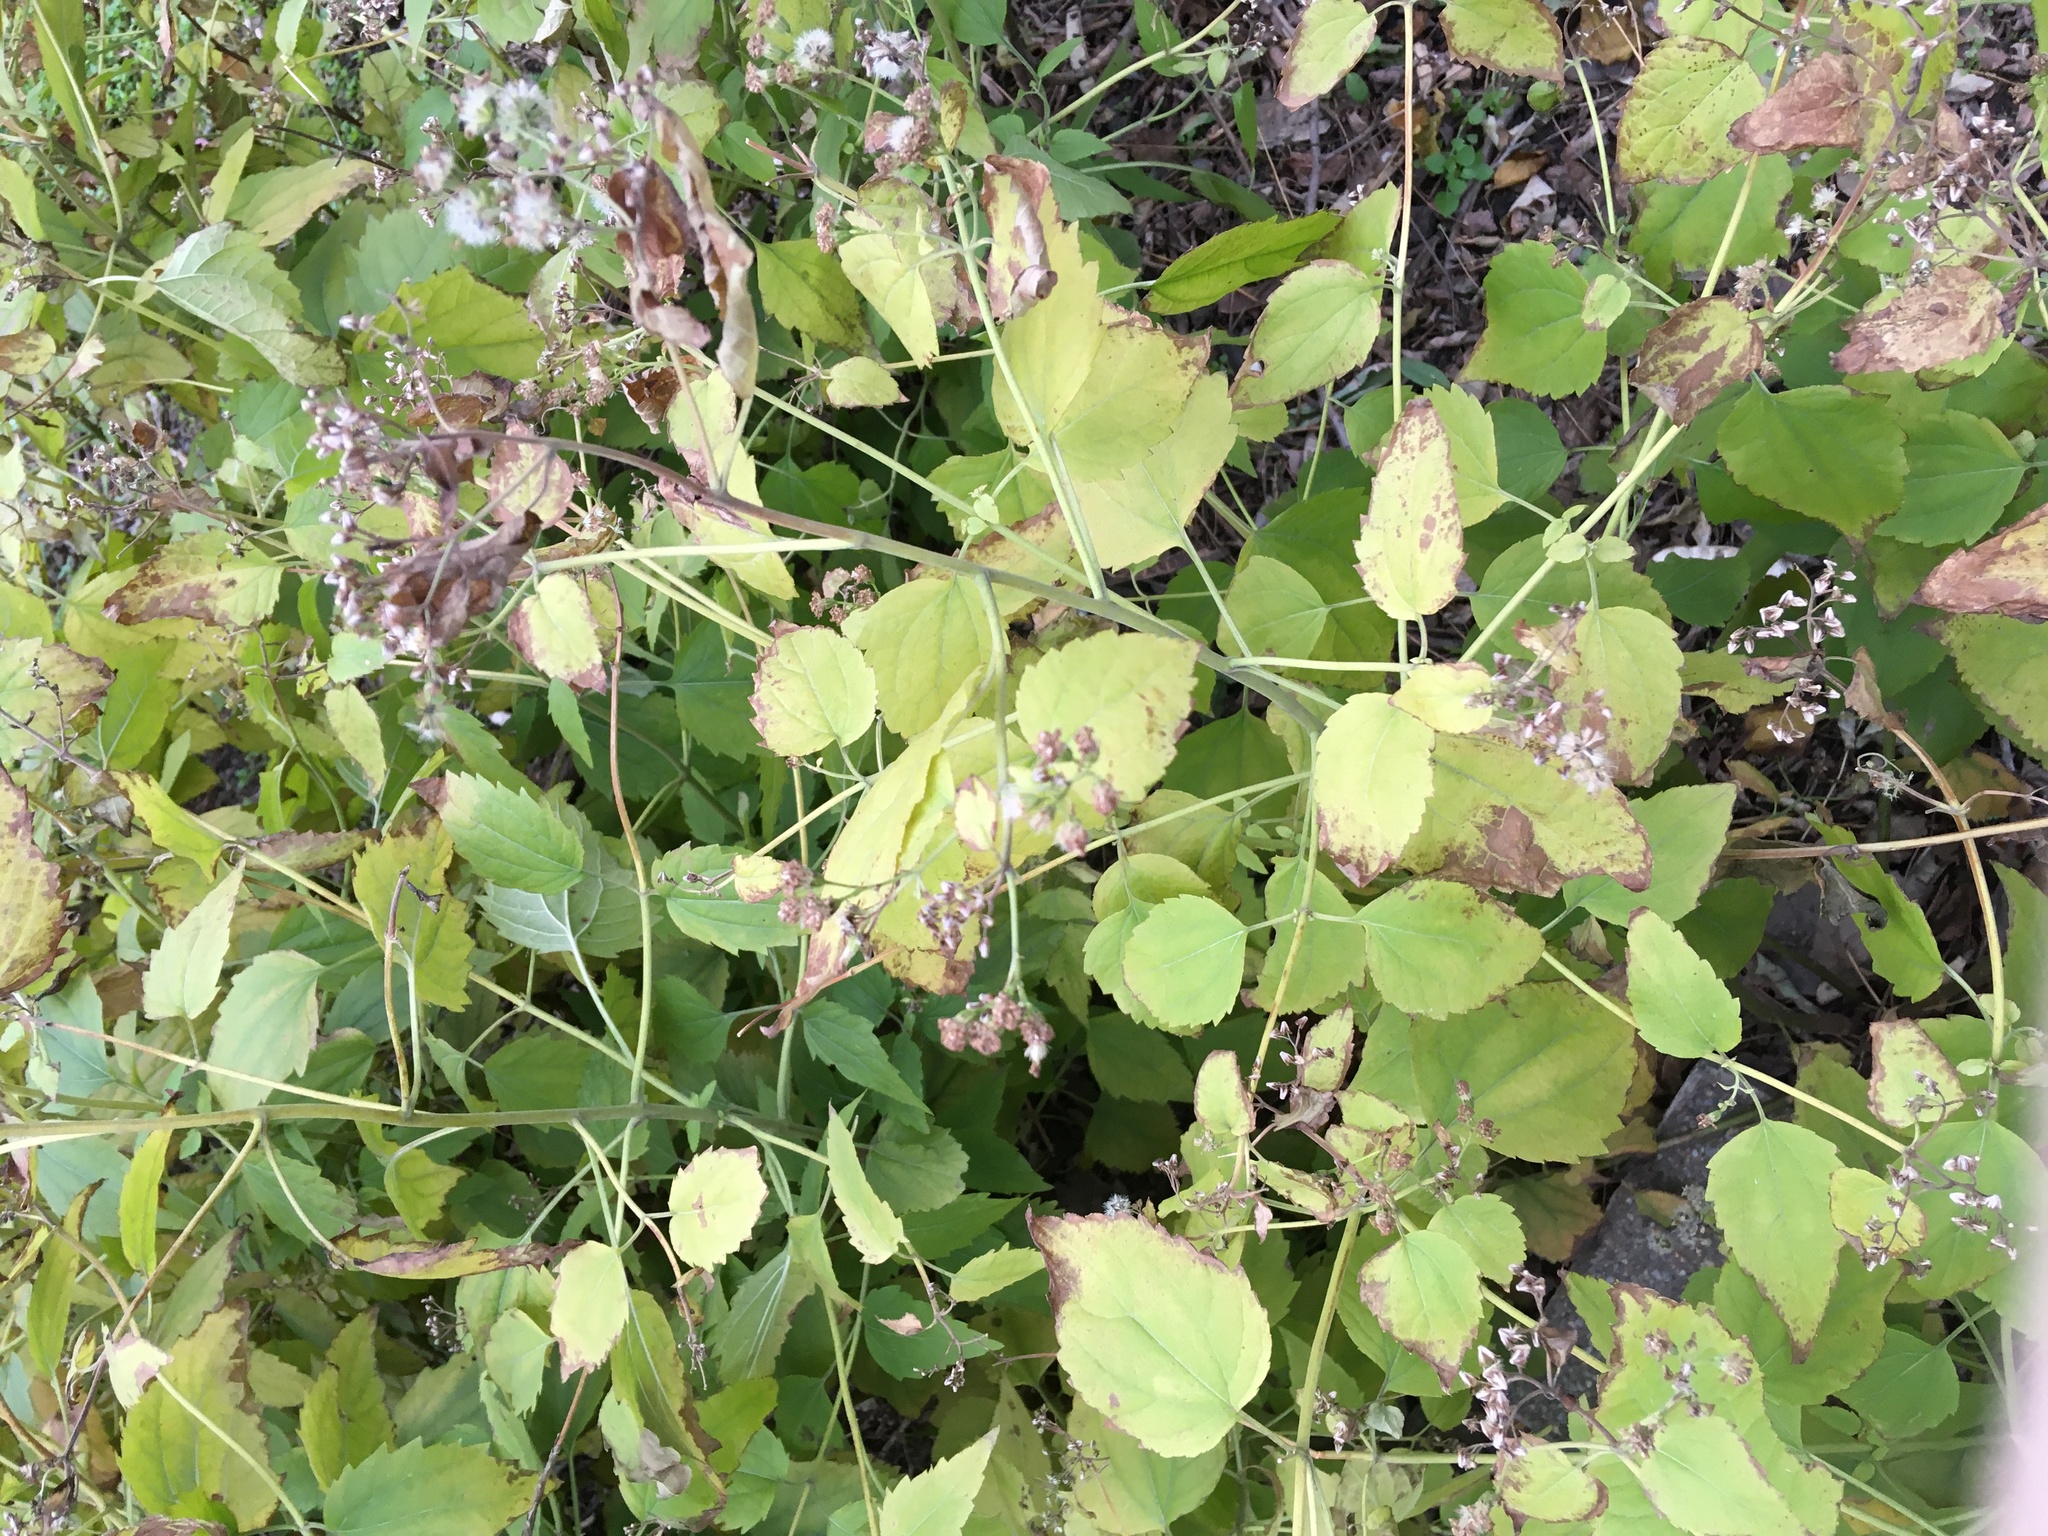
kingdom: Plantae
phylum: Tracheophyta
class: Magnoliopsida
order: Asterales
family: Asteraceae
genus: Ageratina
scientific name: Ageratina altissima
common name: White snakeroot
